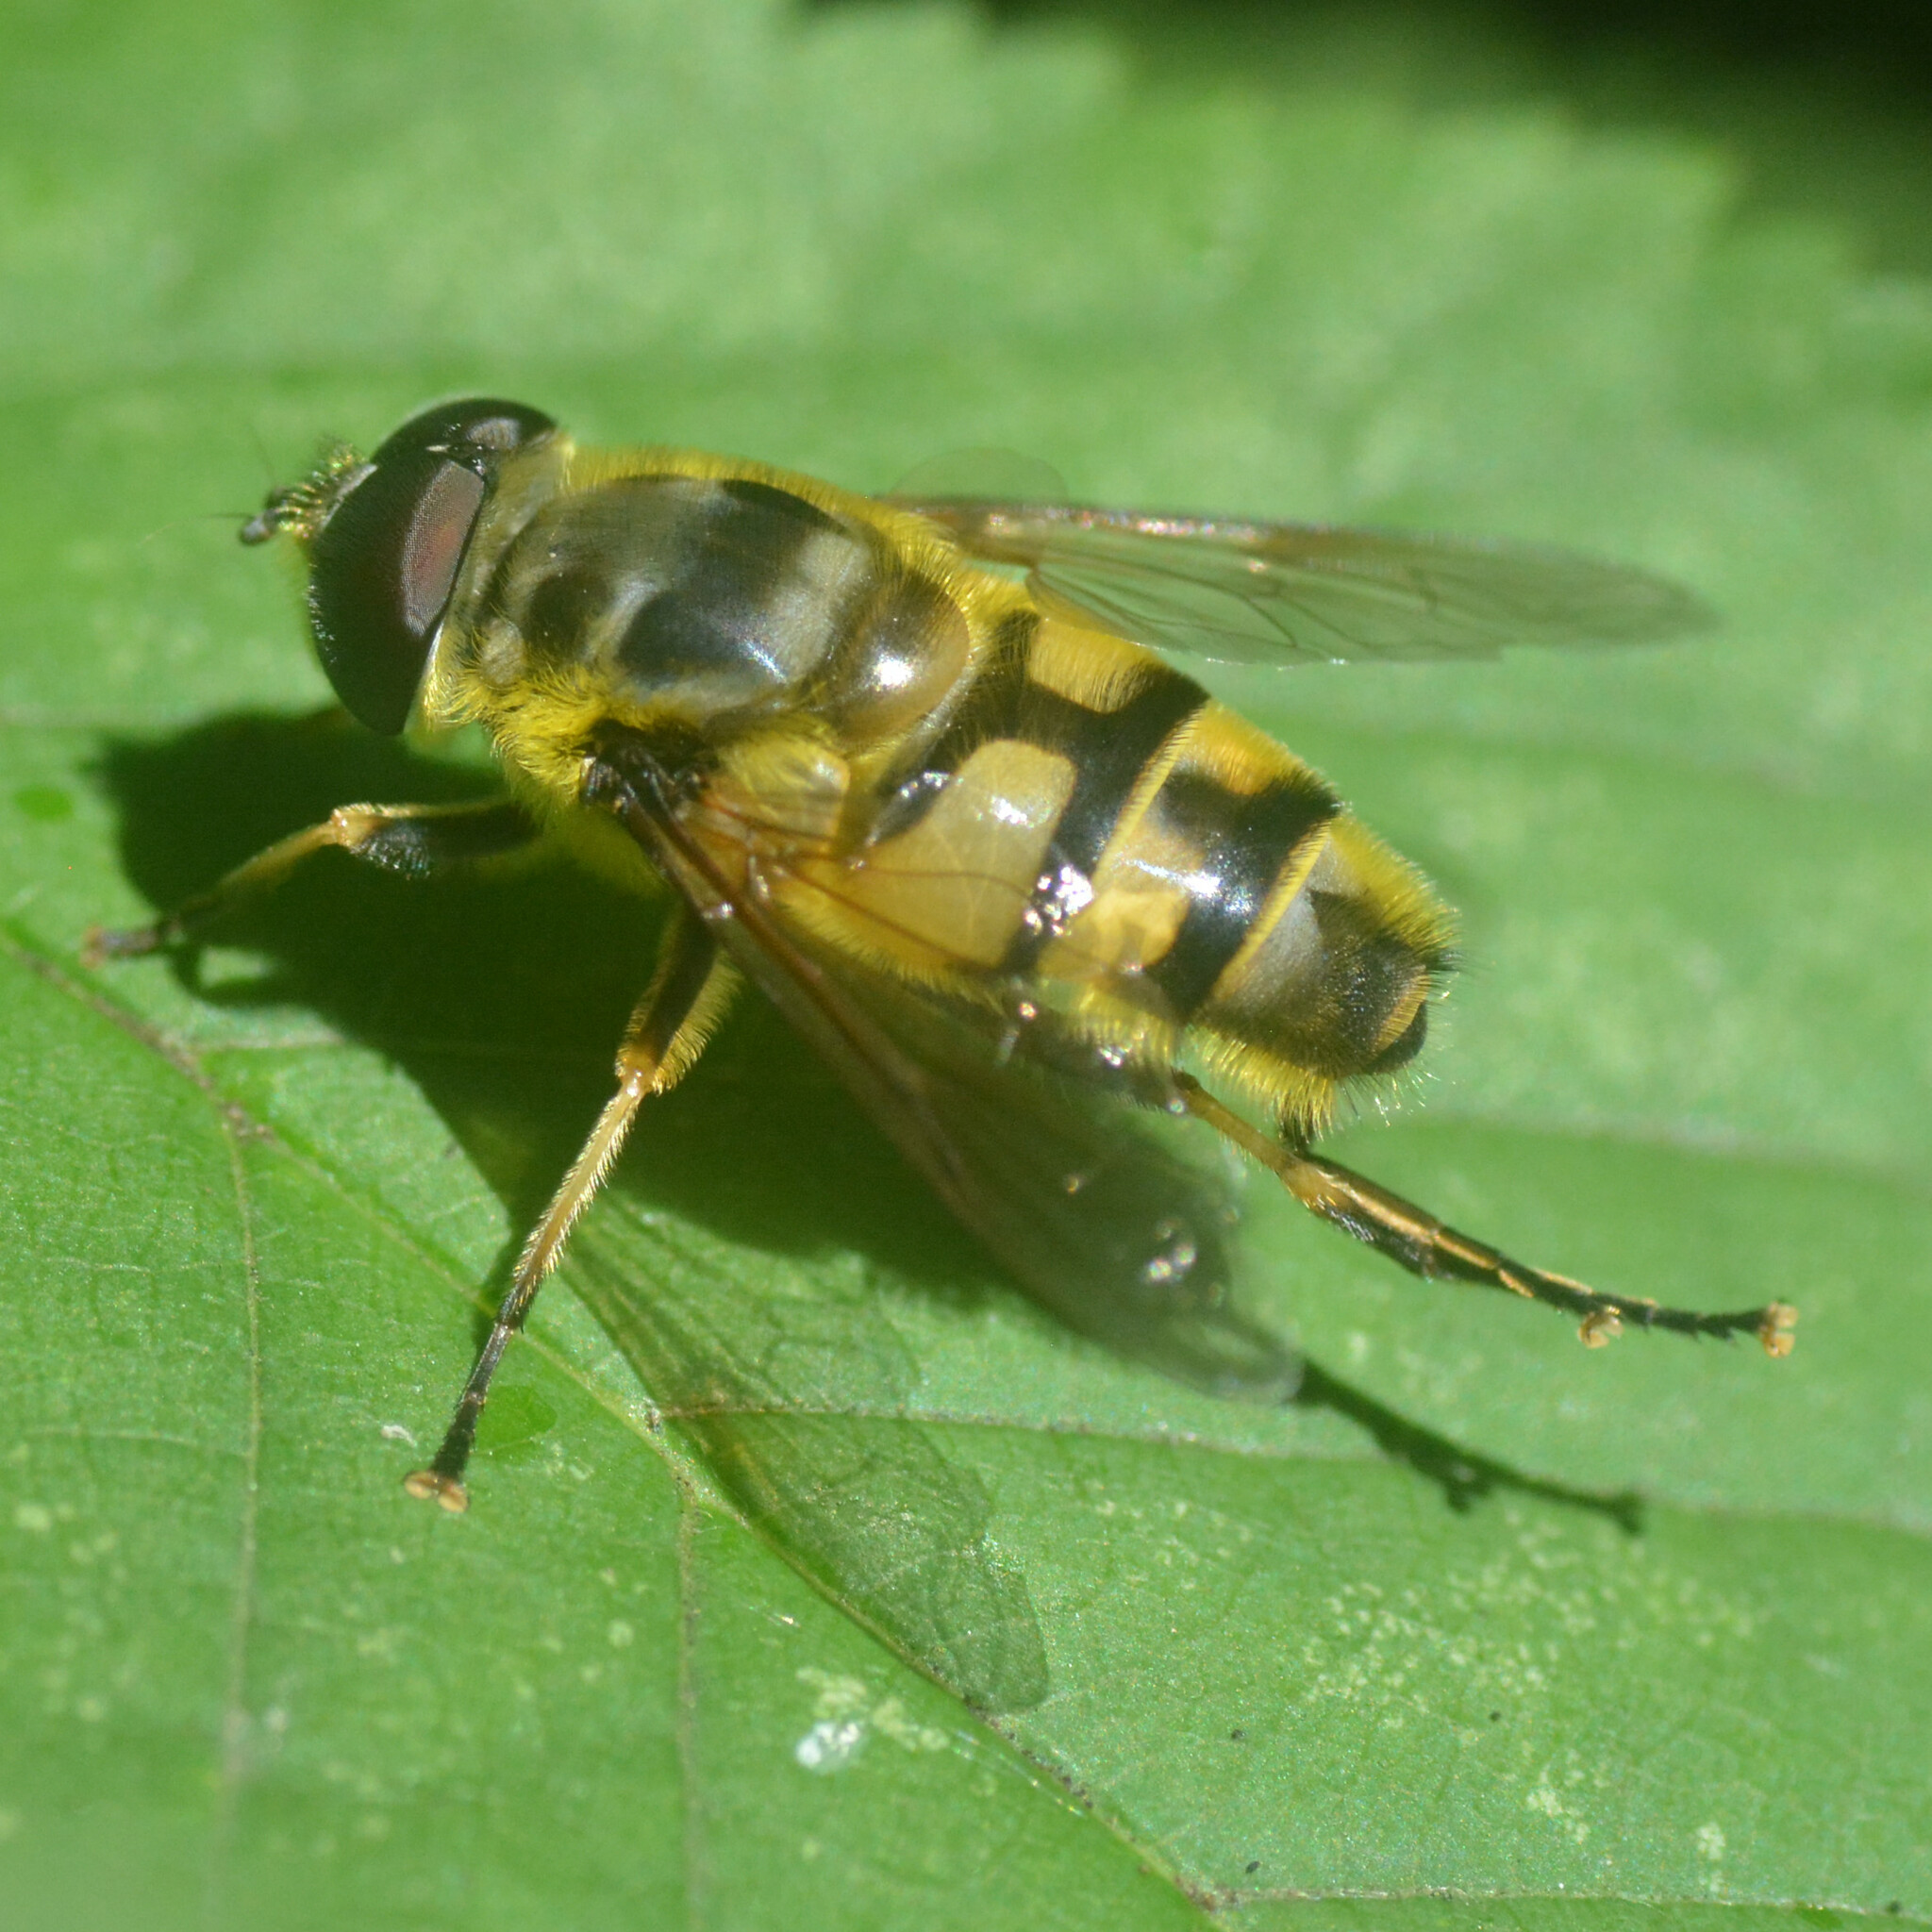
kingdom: Animalia
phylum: Arthropoda
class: Insecta
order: Diptera
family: Syrphidae
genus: Myathropa
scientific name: Myathropa florea
